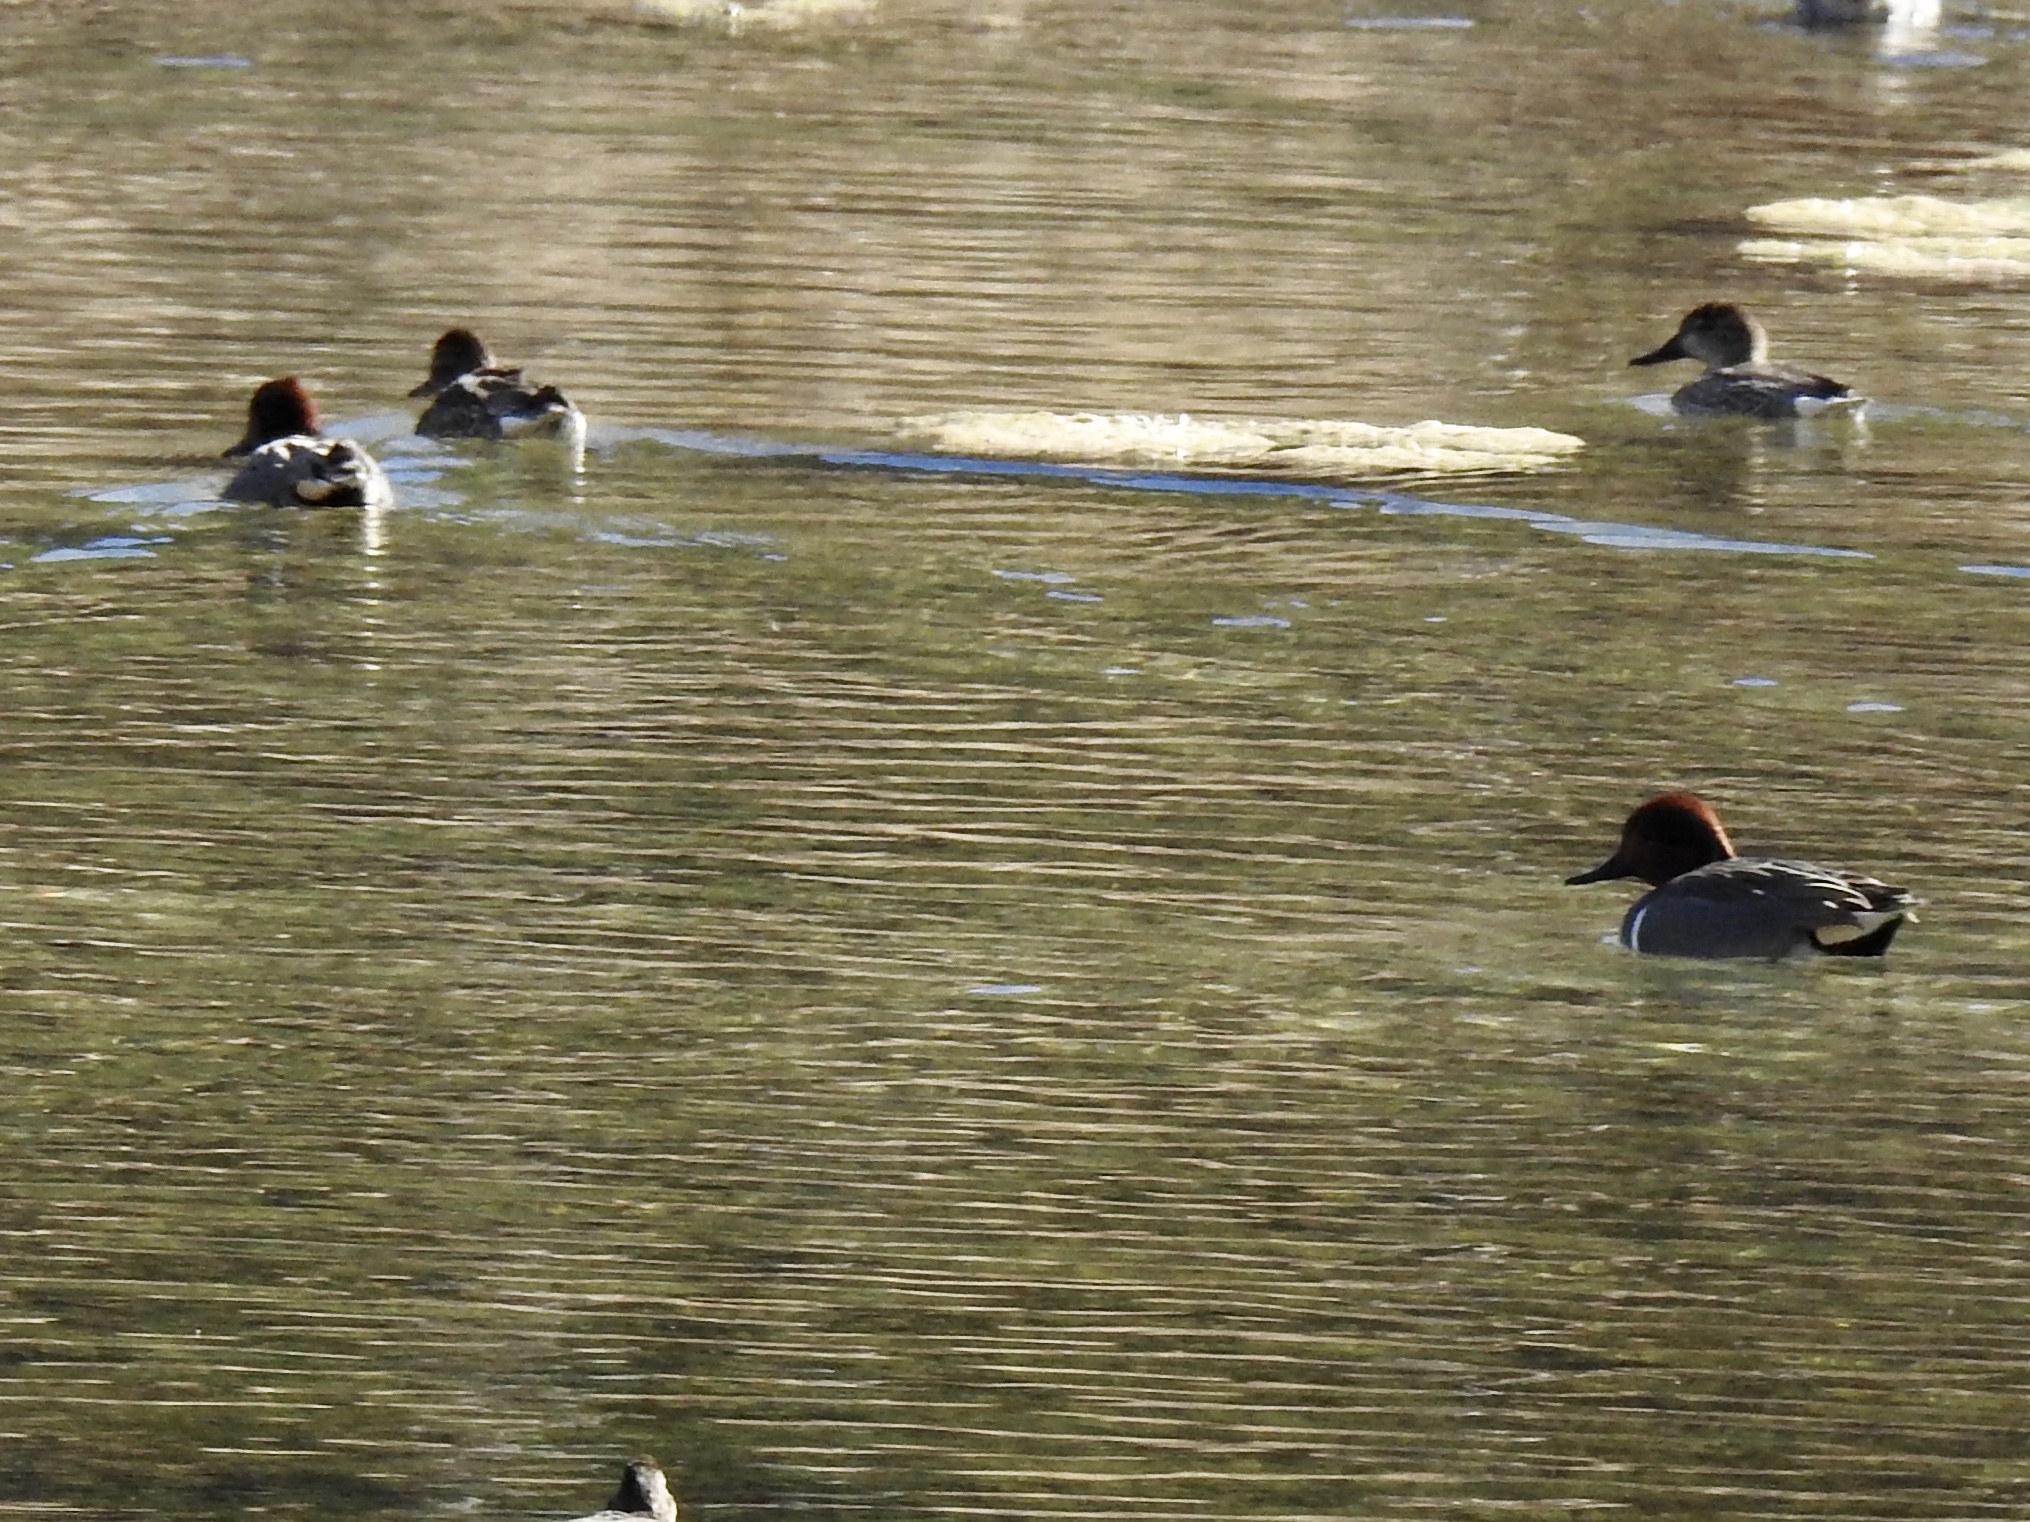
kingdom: Animalia
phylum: Chordata
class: Aves
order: Anseriformes
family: Anatidae
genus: Anas
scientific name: Anas crecca
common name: Eurasian teal
